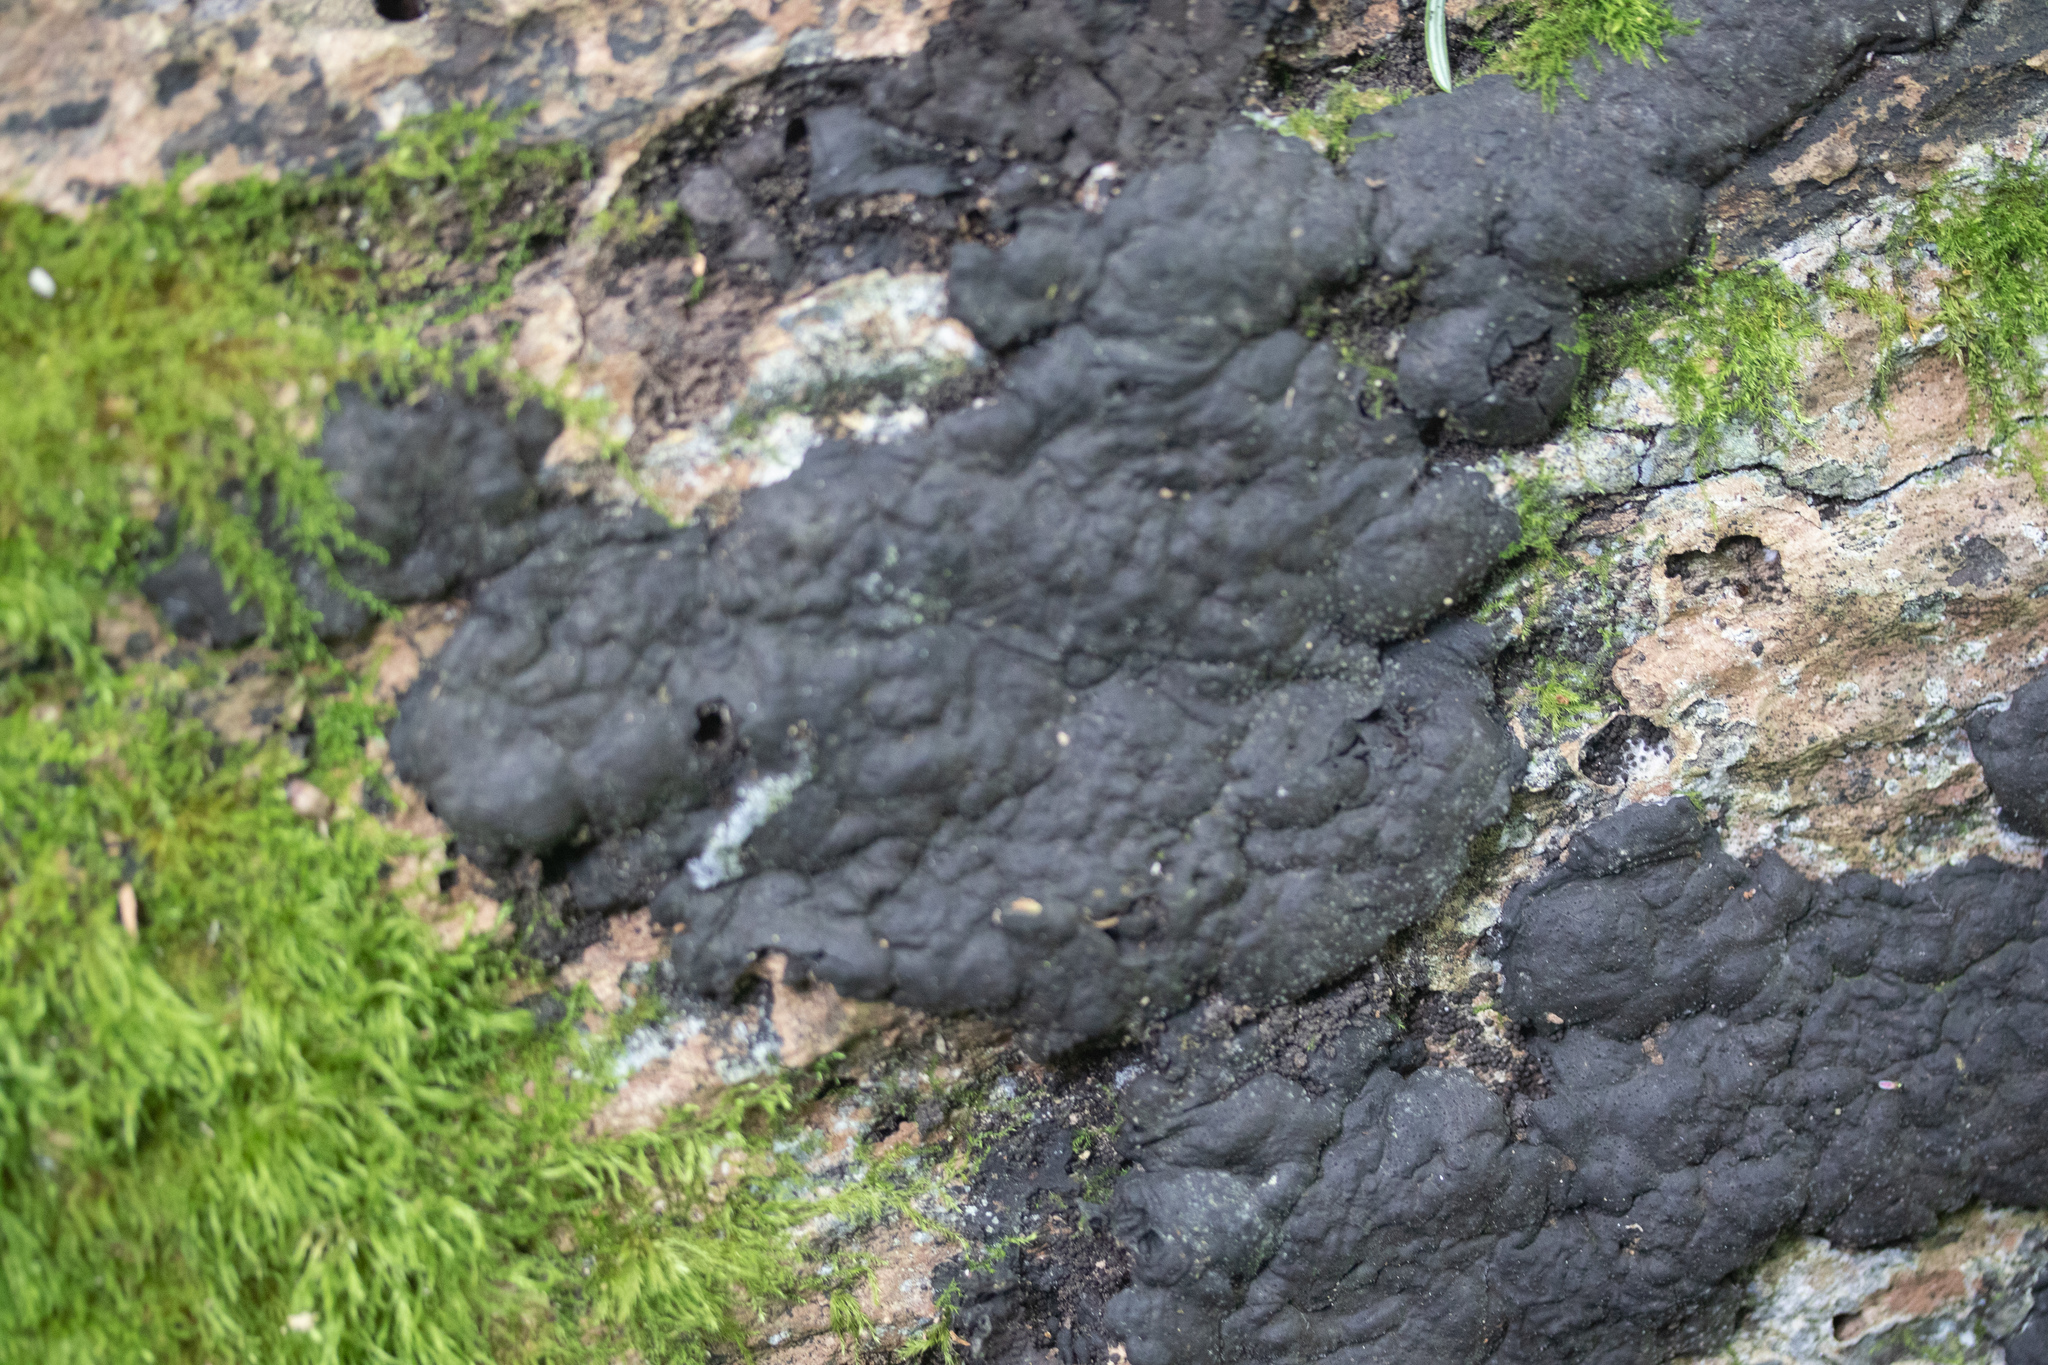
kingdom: Fungi
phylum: Ascomycota
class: Sordariomycetes
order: Xylariales
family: Xylariaceae
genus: Kretzschmaria
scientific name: Kretzschmaria deusta
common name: Brittle cinder
